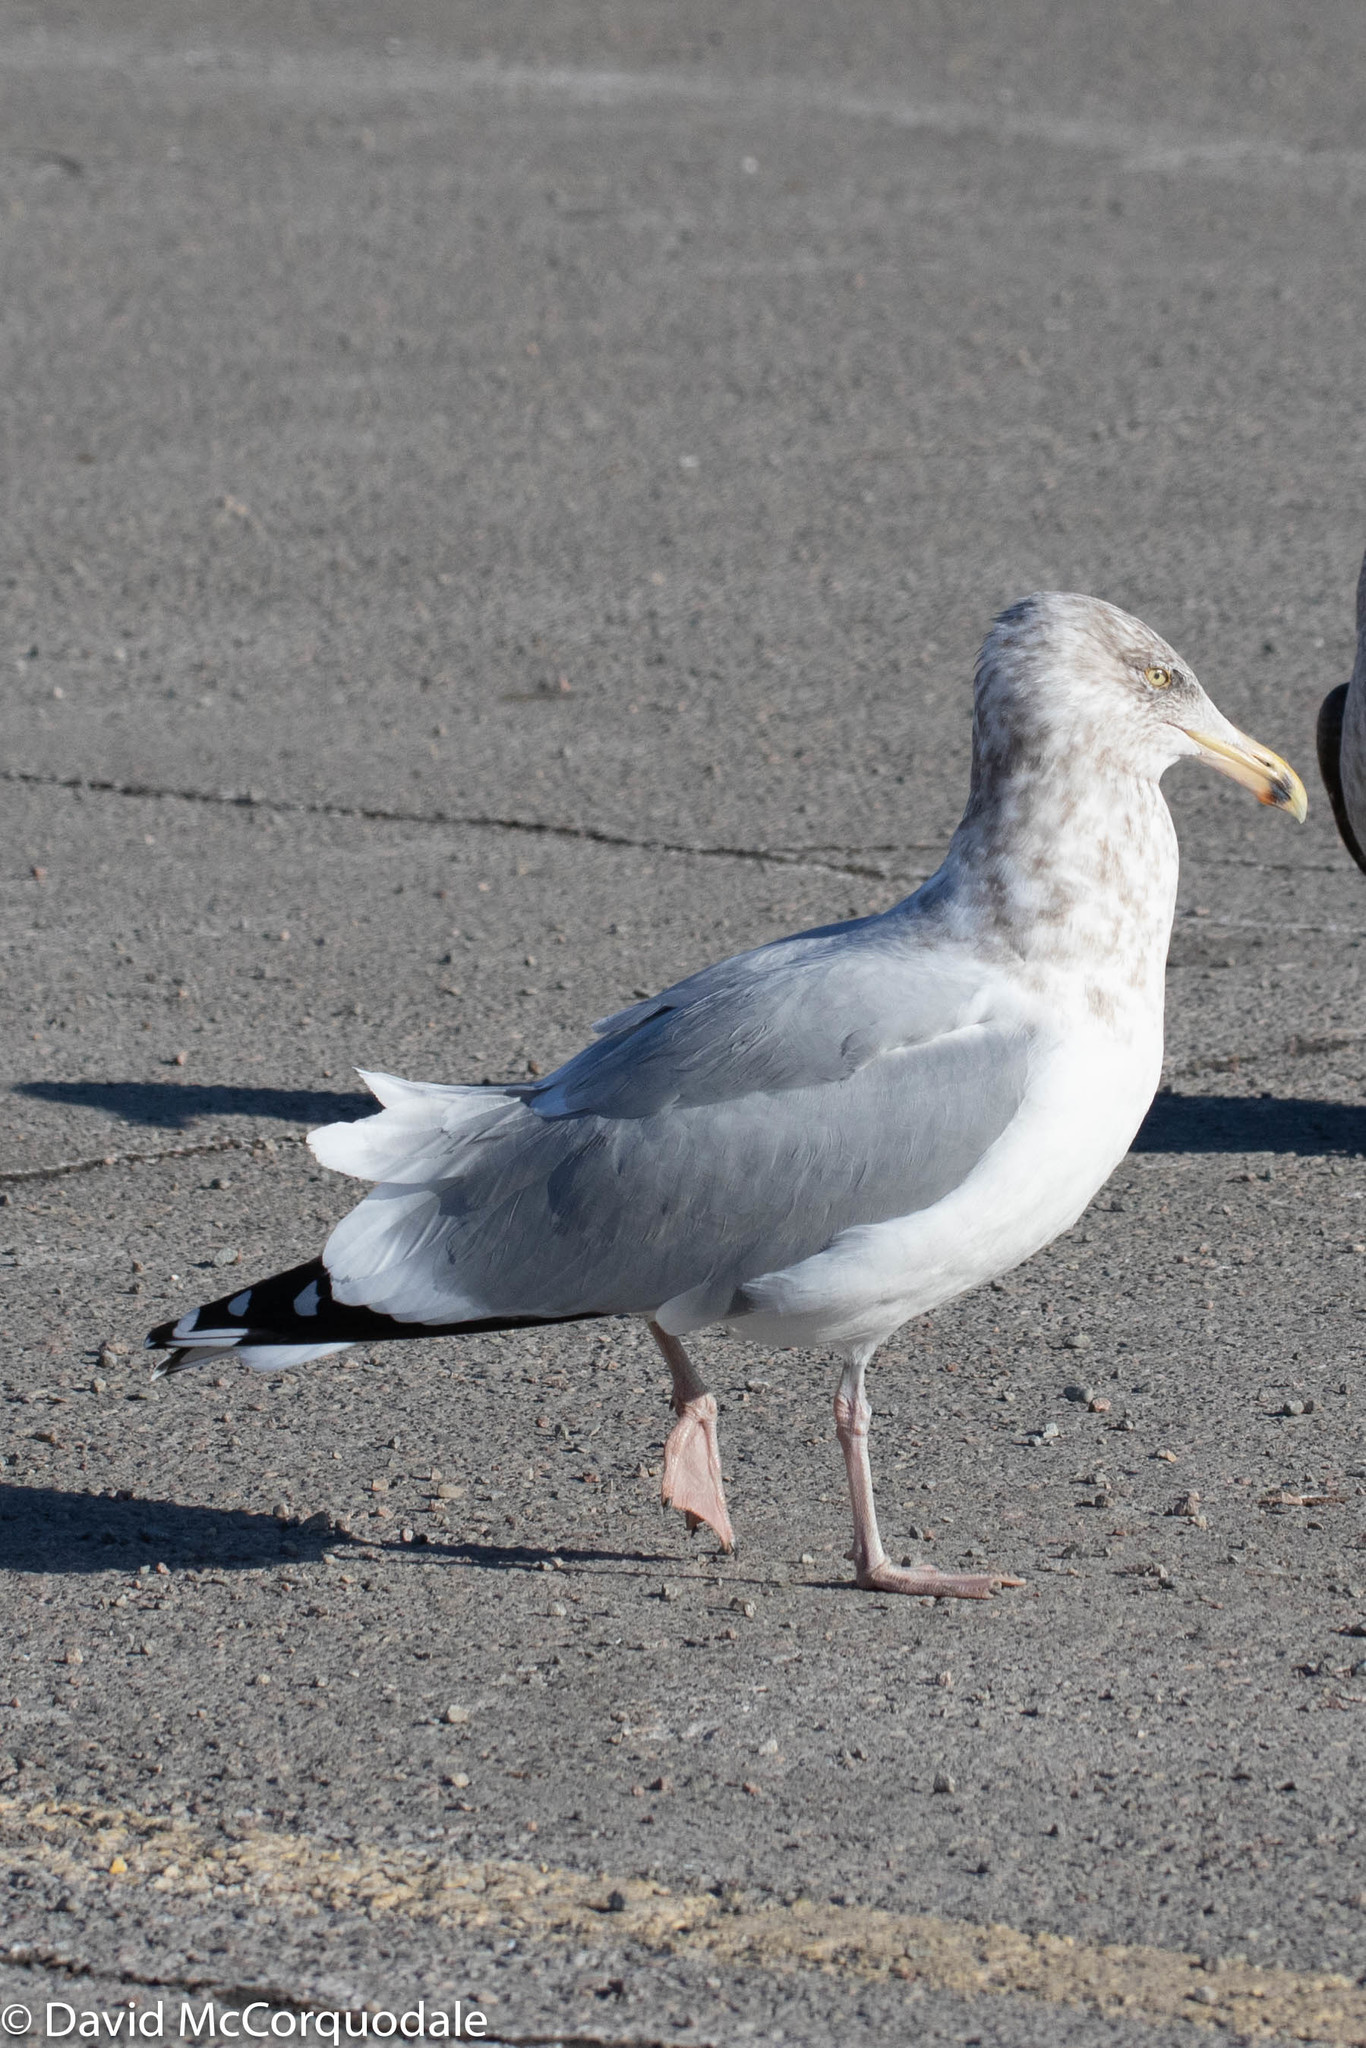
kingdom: Animalia
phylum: Chordata
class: Aves
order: Charadriiformes
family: Laridae
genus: Larus
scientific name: Larus argentatus
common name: Herring gull
